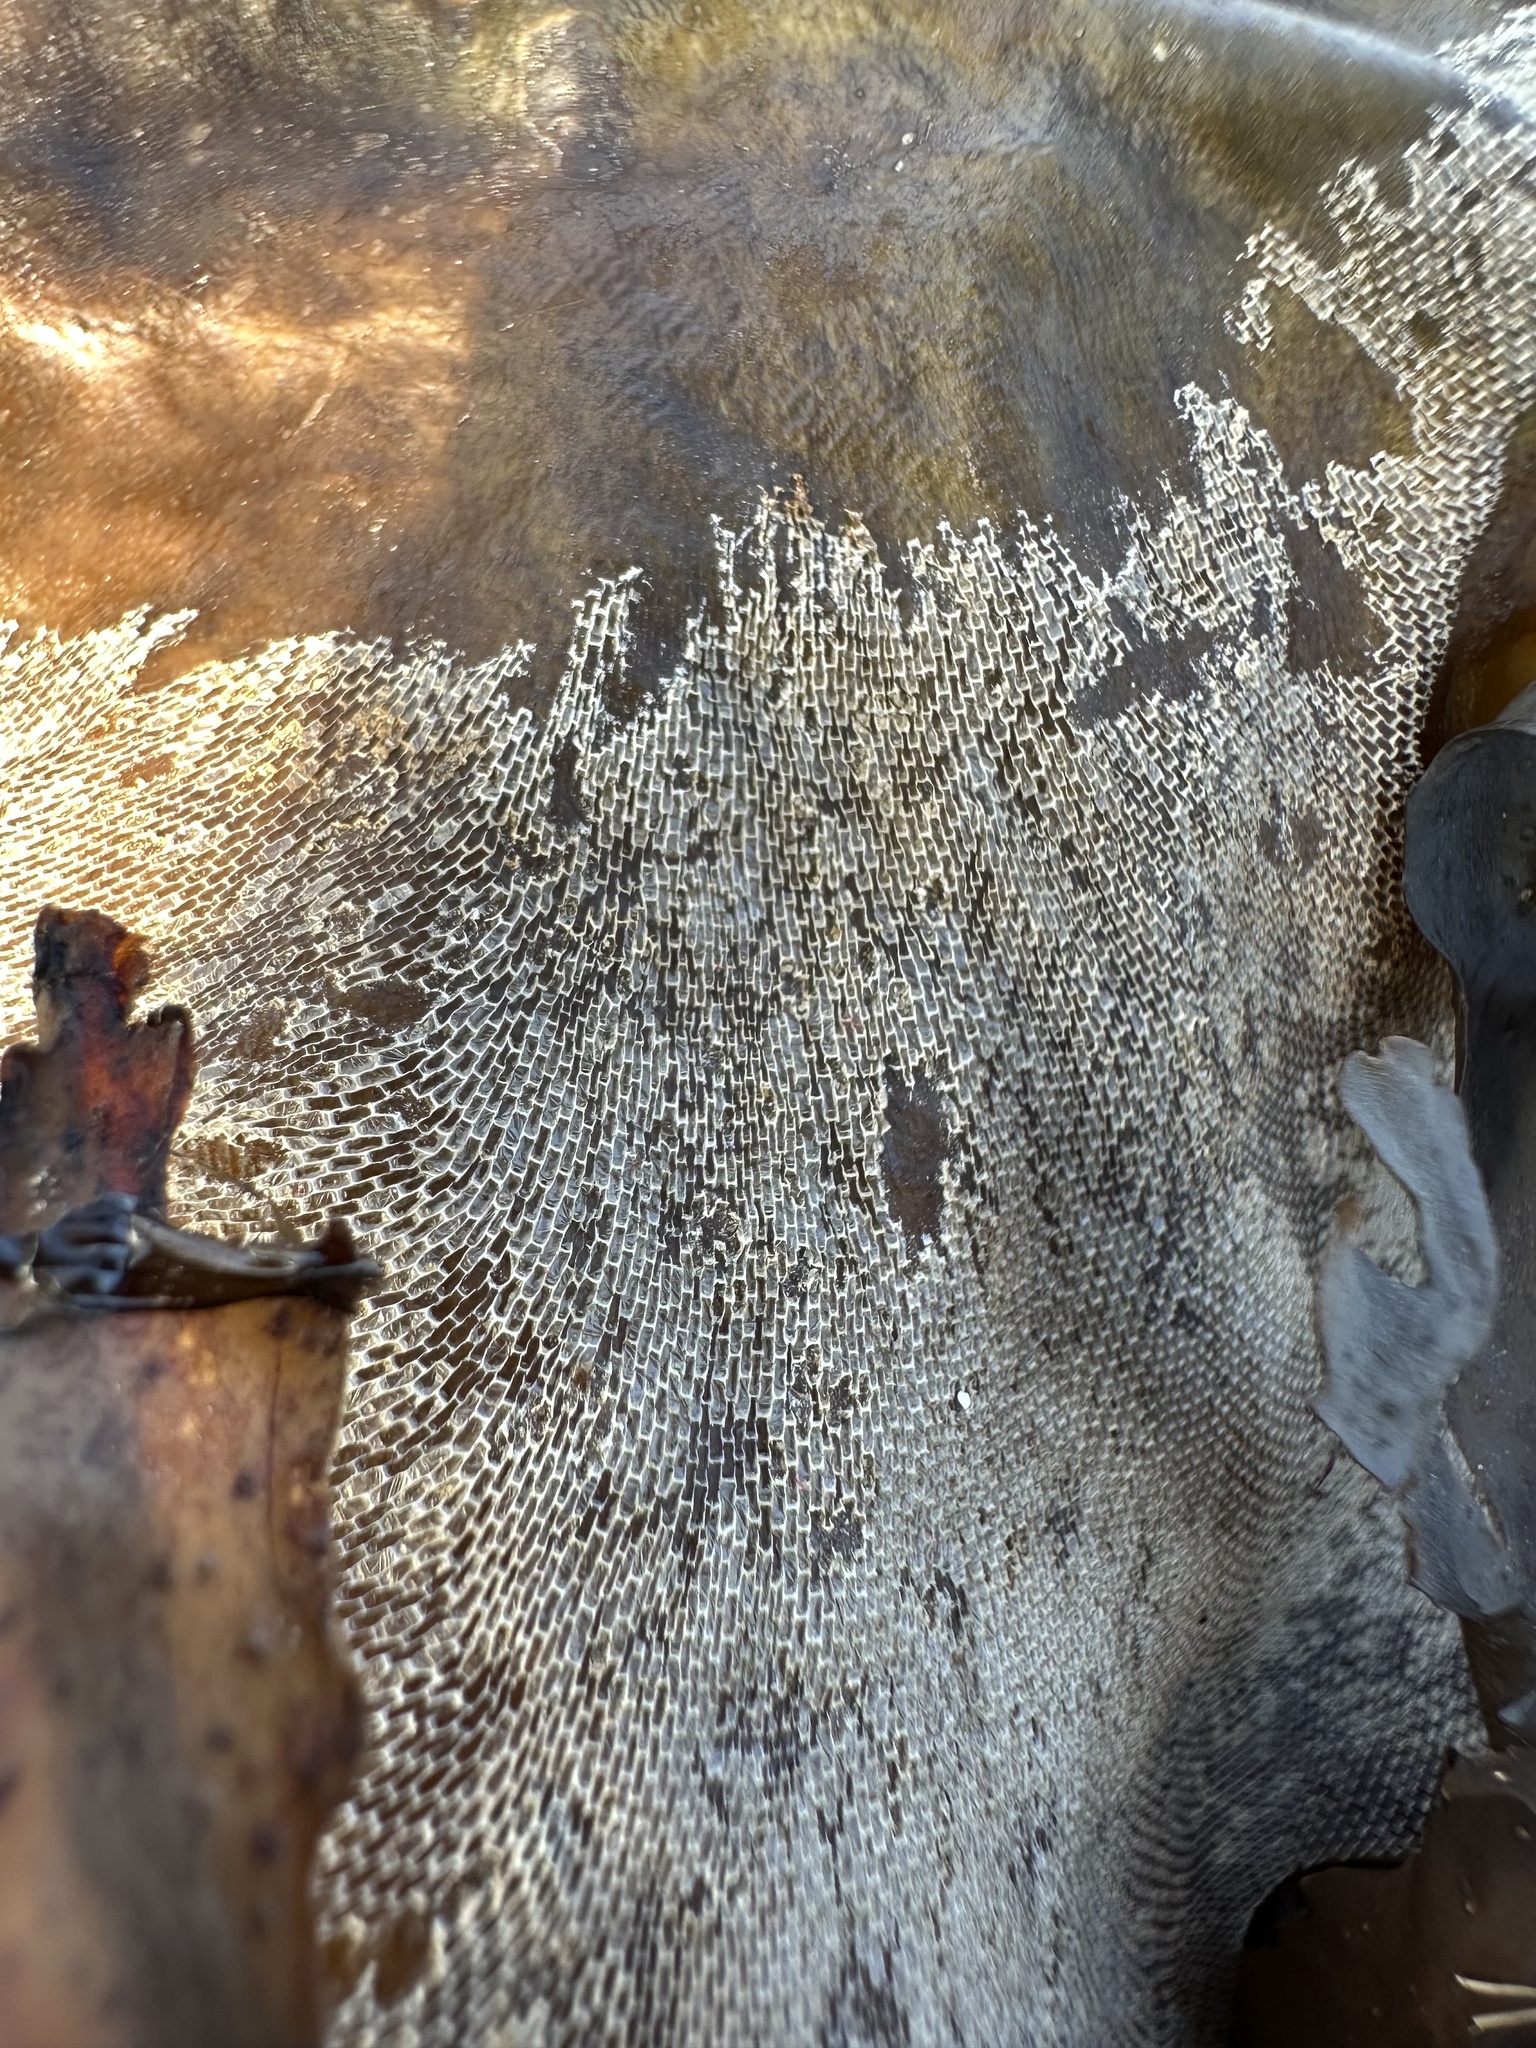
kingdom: Animalia
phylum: Bryozoa
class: Gymnolaemata
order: Cheilostomatida
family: Membraniporidae
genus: Membranipora
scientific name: Membranipora membranacea
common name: Sea mat
